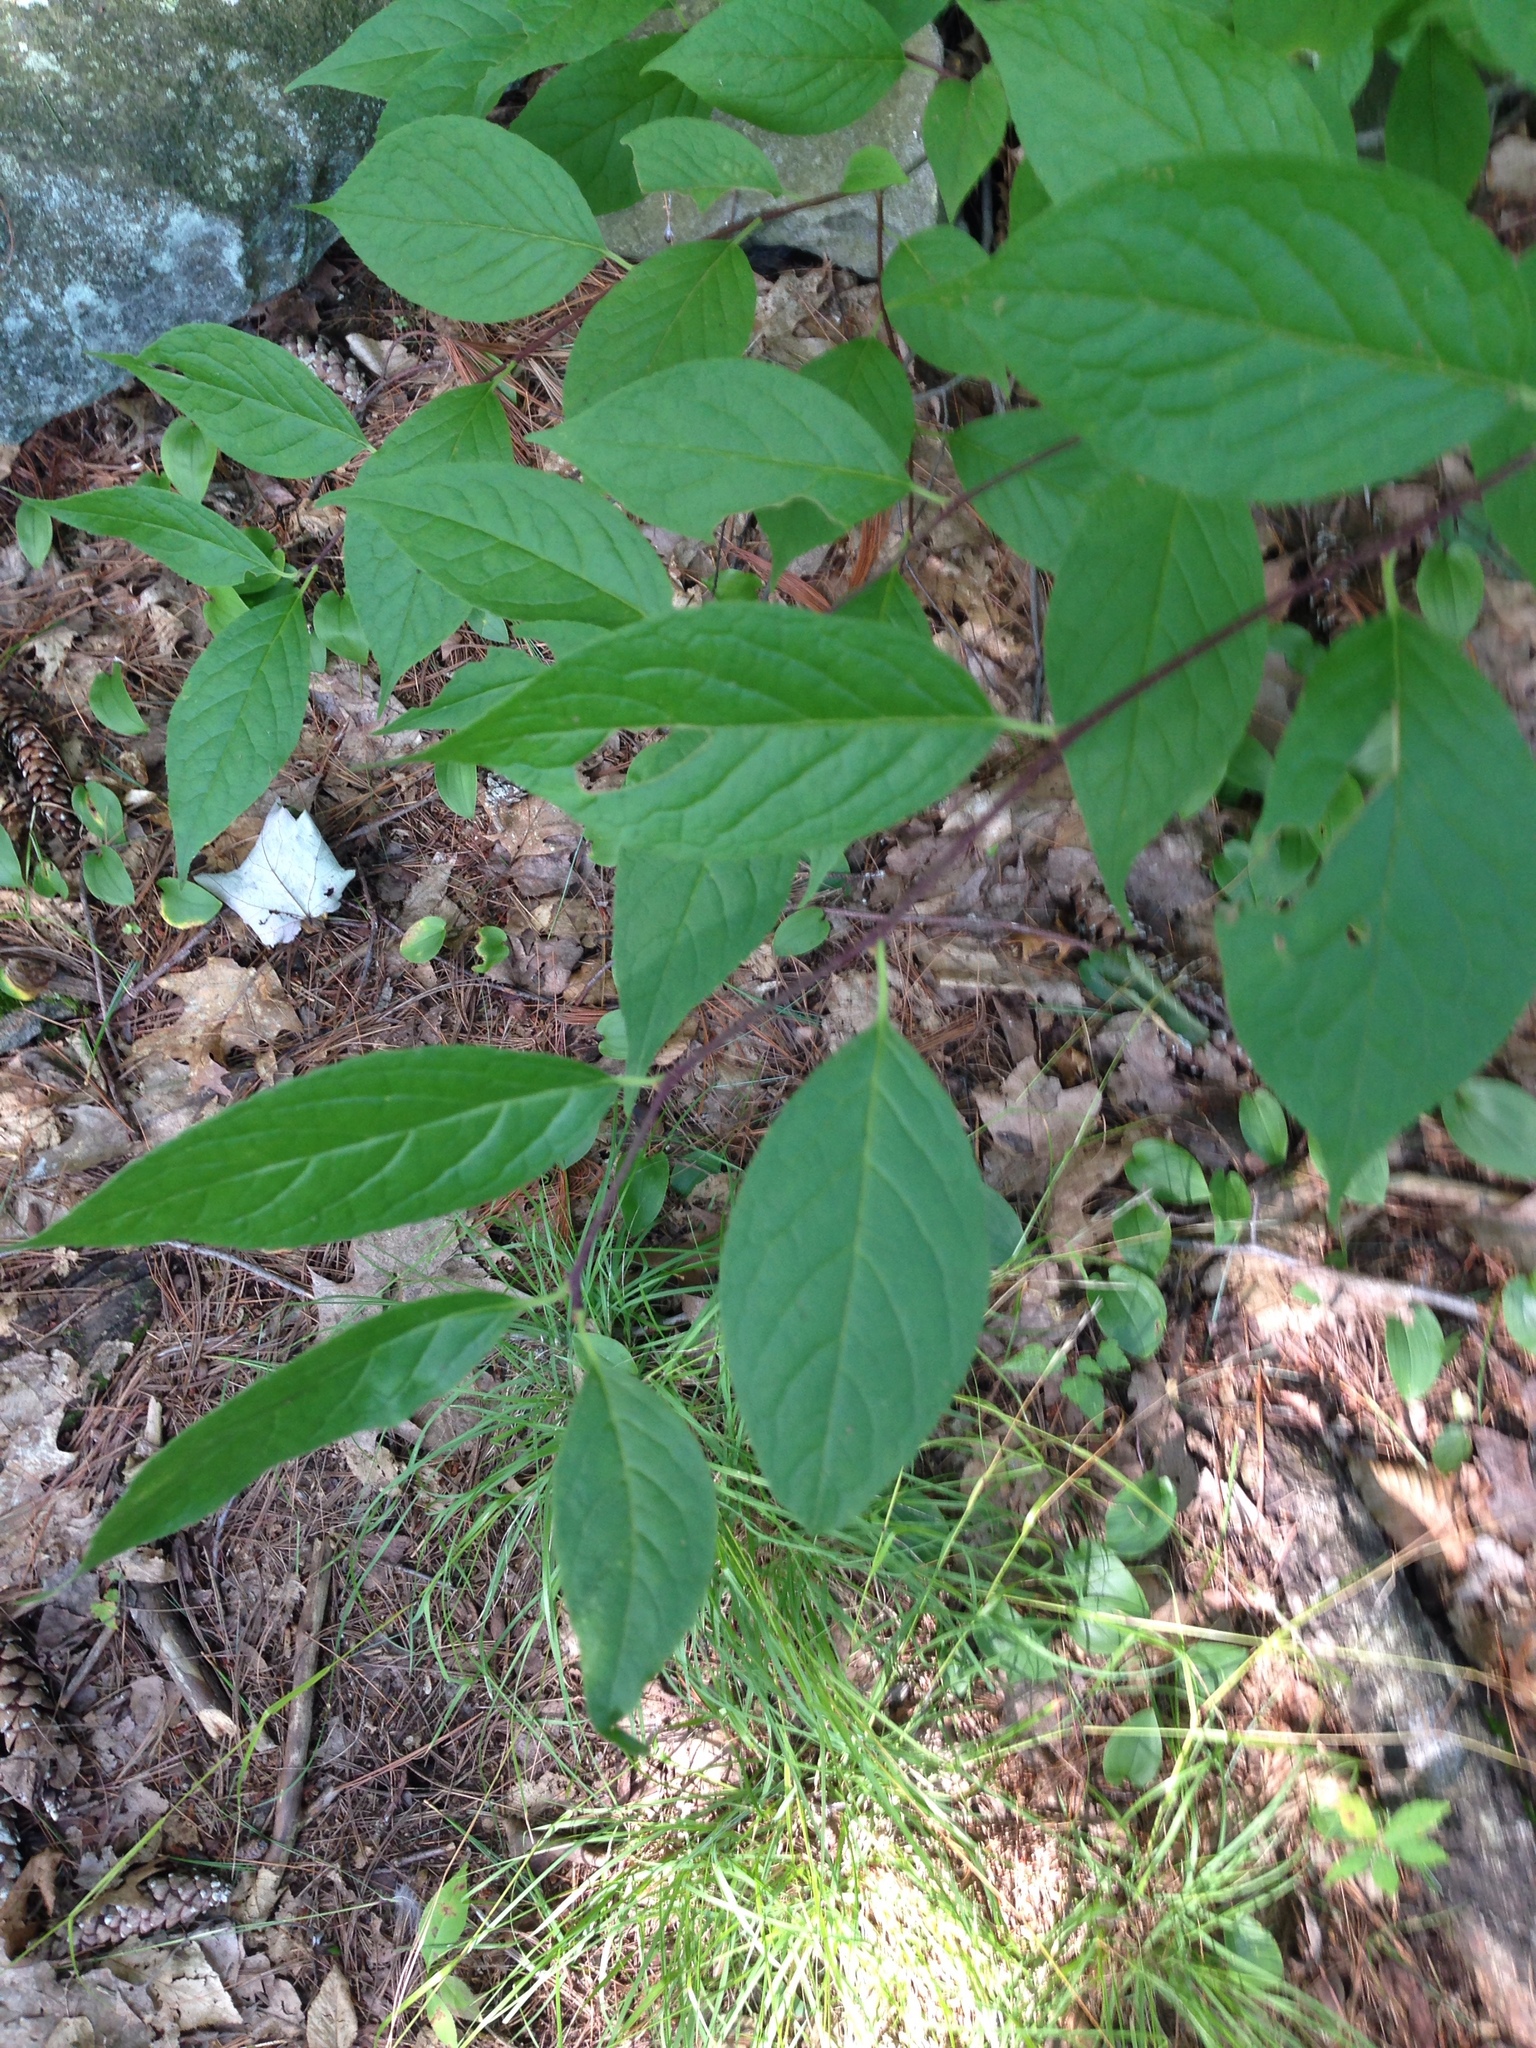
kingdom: Plantae
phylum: Tracheophyta
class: Magnoliopsida
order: Aquifoliales
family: Aquifoliaceae
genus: Ilex
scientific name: Ilex montana
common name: Mountain winterberry
